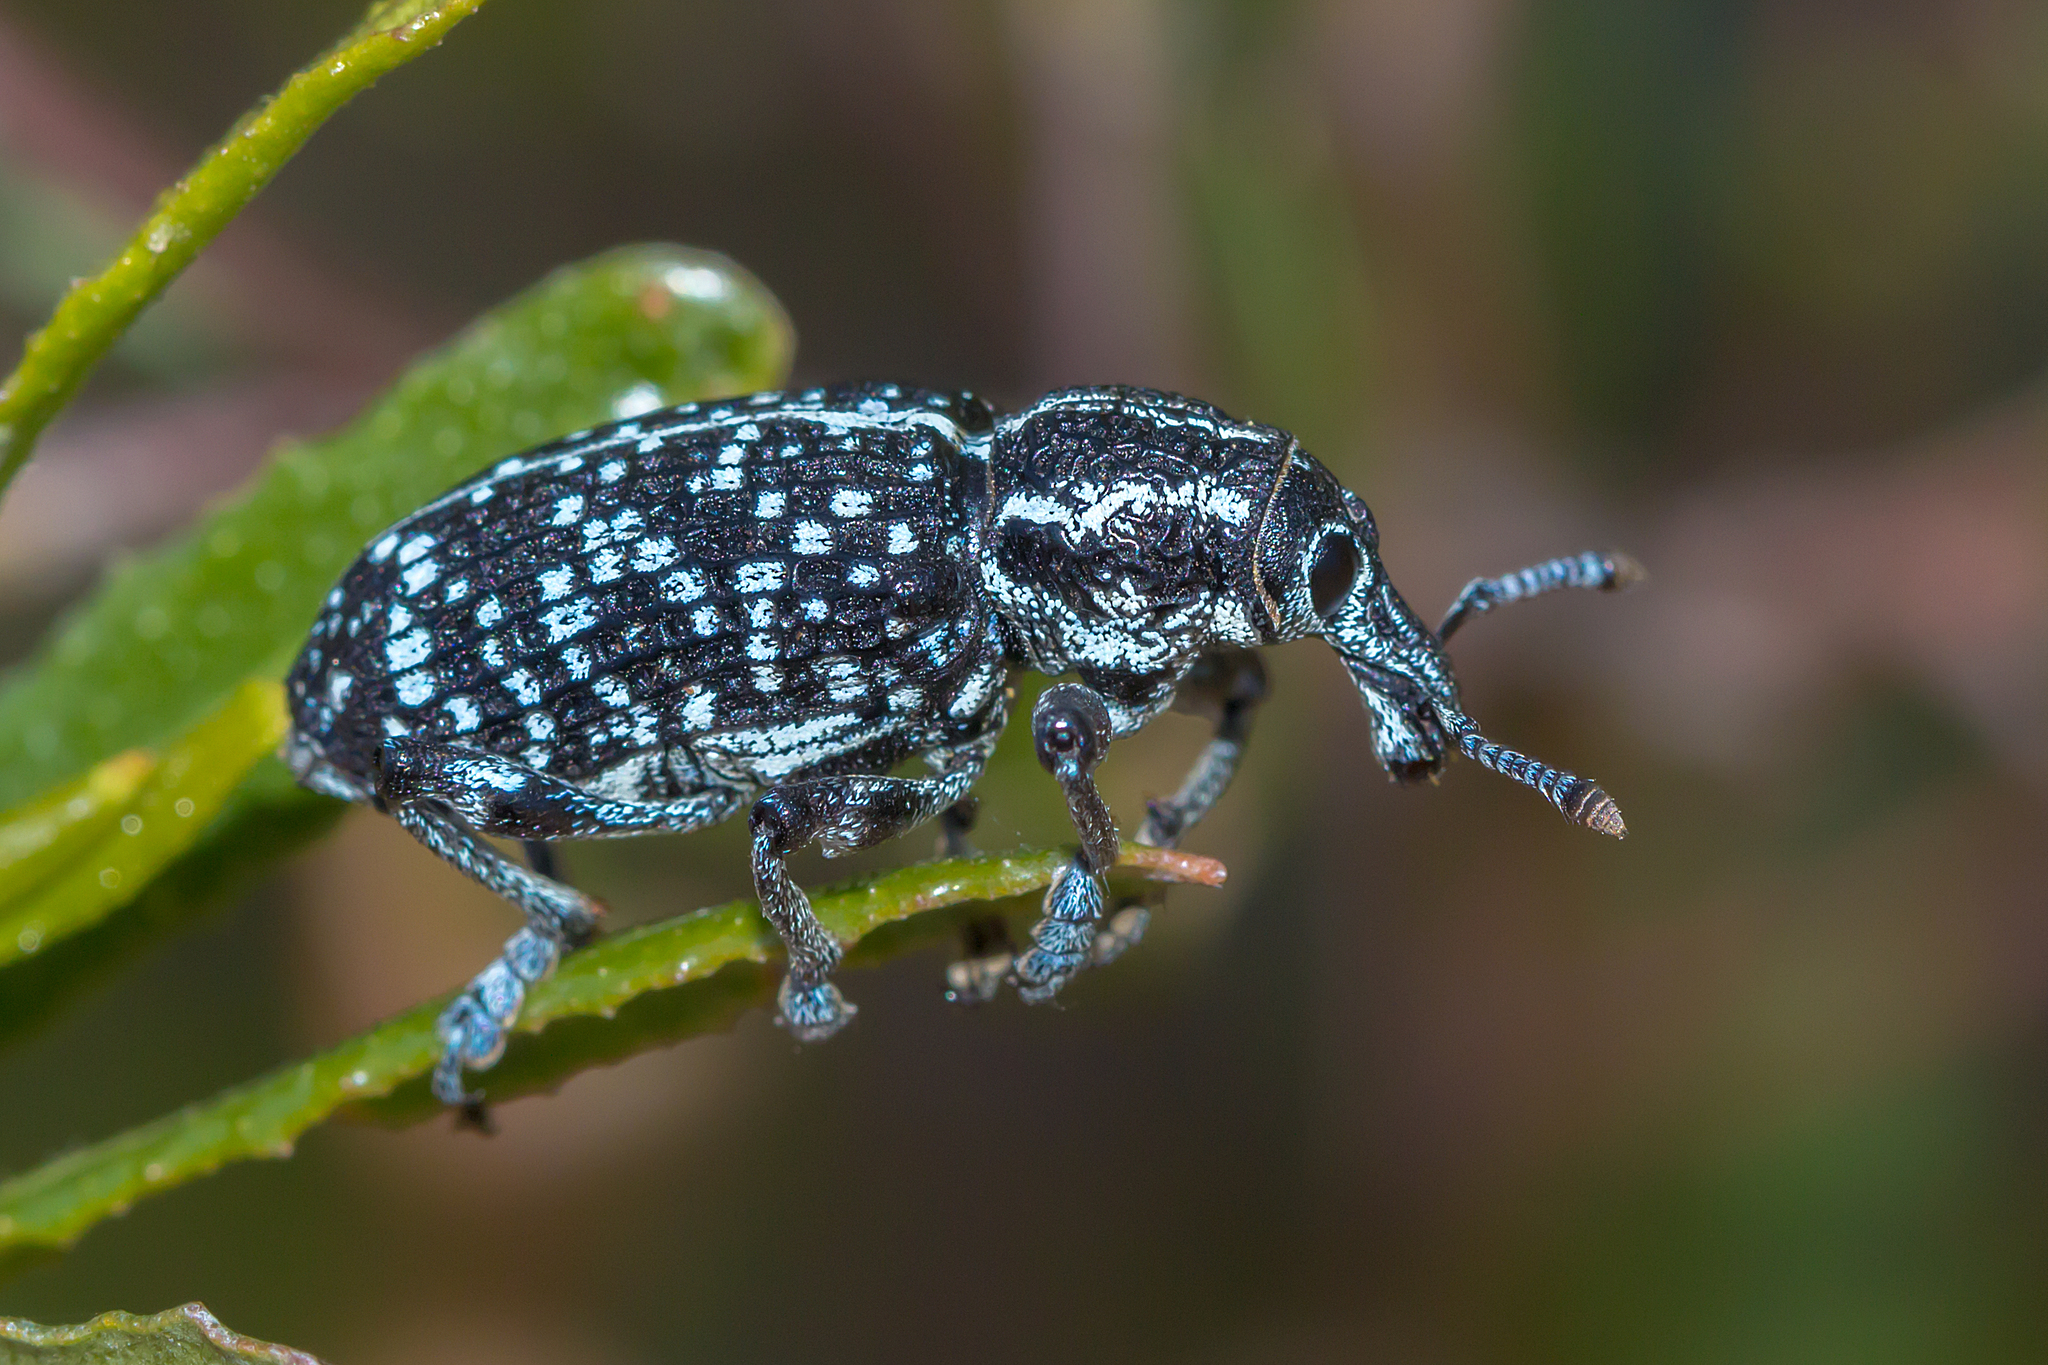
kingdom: Animalia
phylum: Arthropoda
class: Insecta
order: Coleoptera
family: Curculionidae
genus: Chrysolopus
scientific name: Chrysolopus spectabilis
